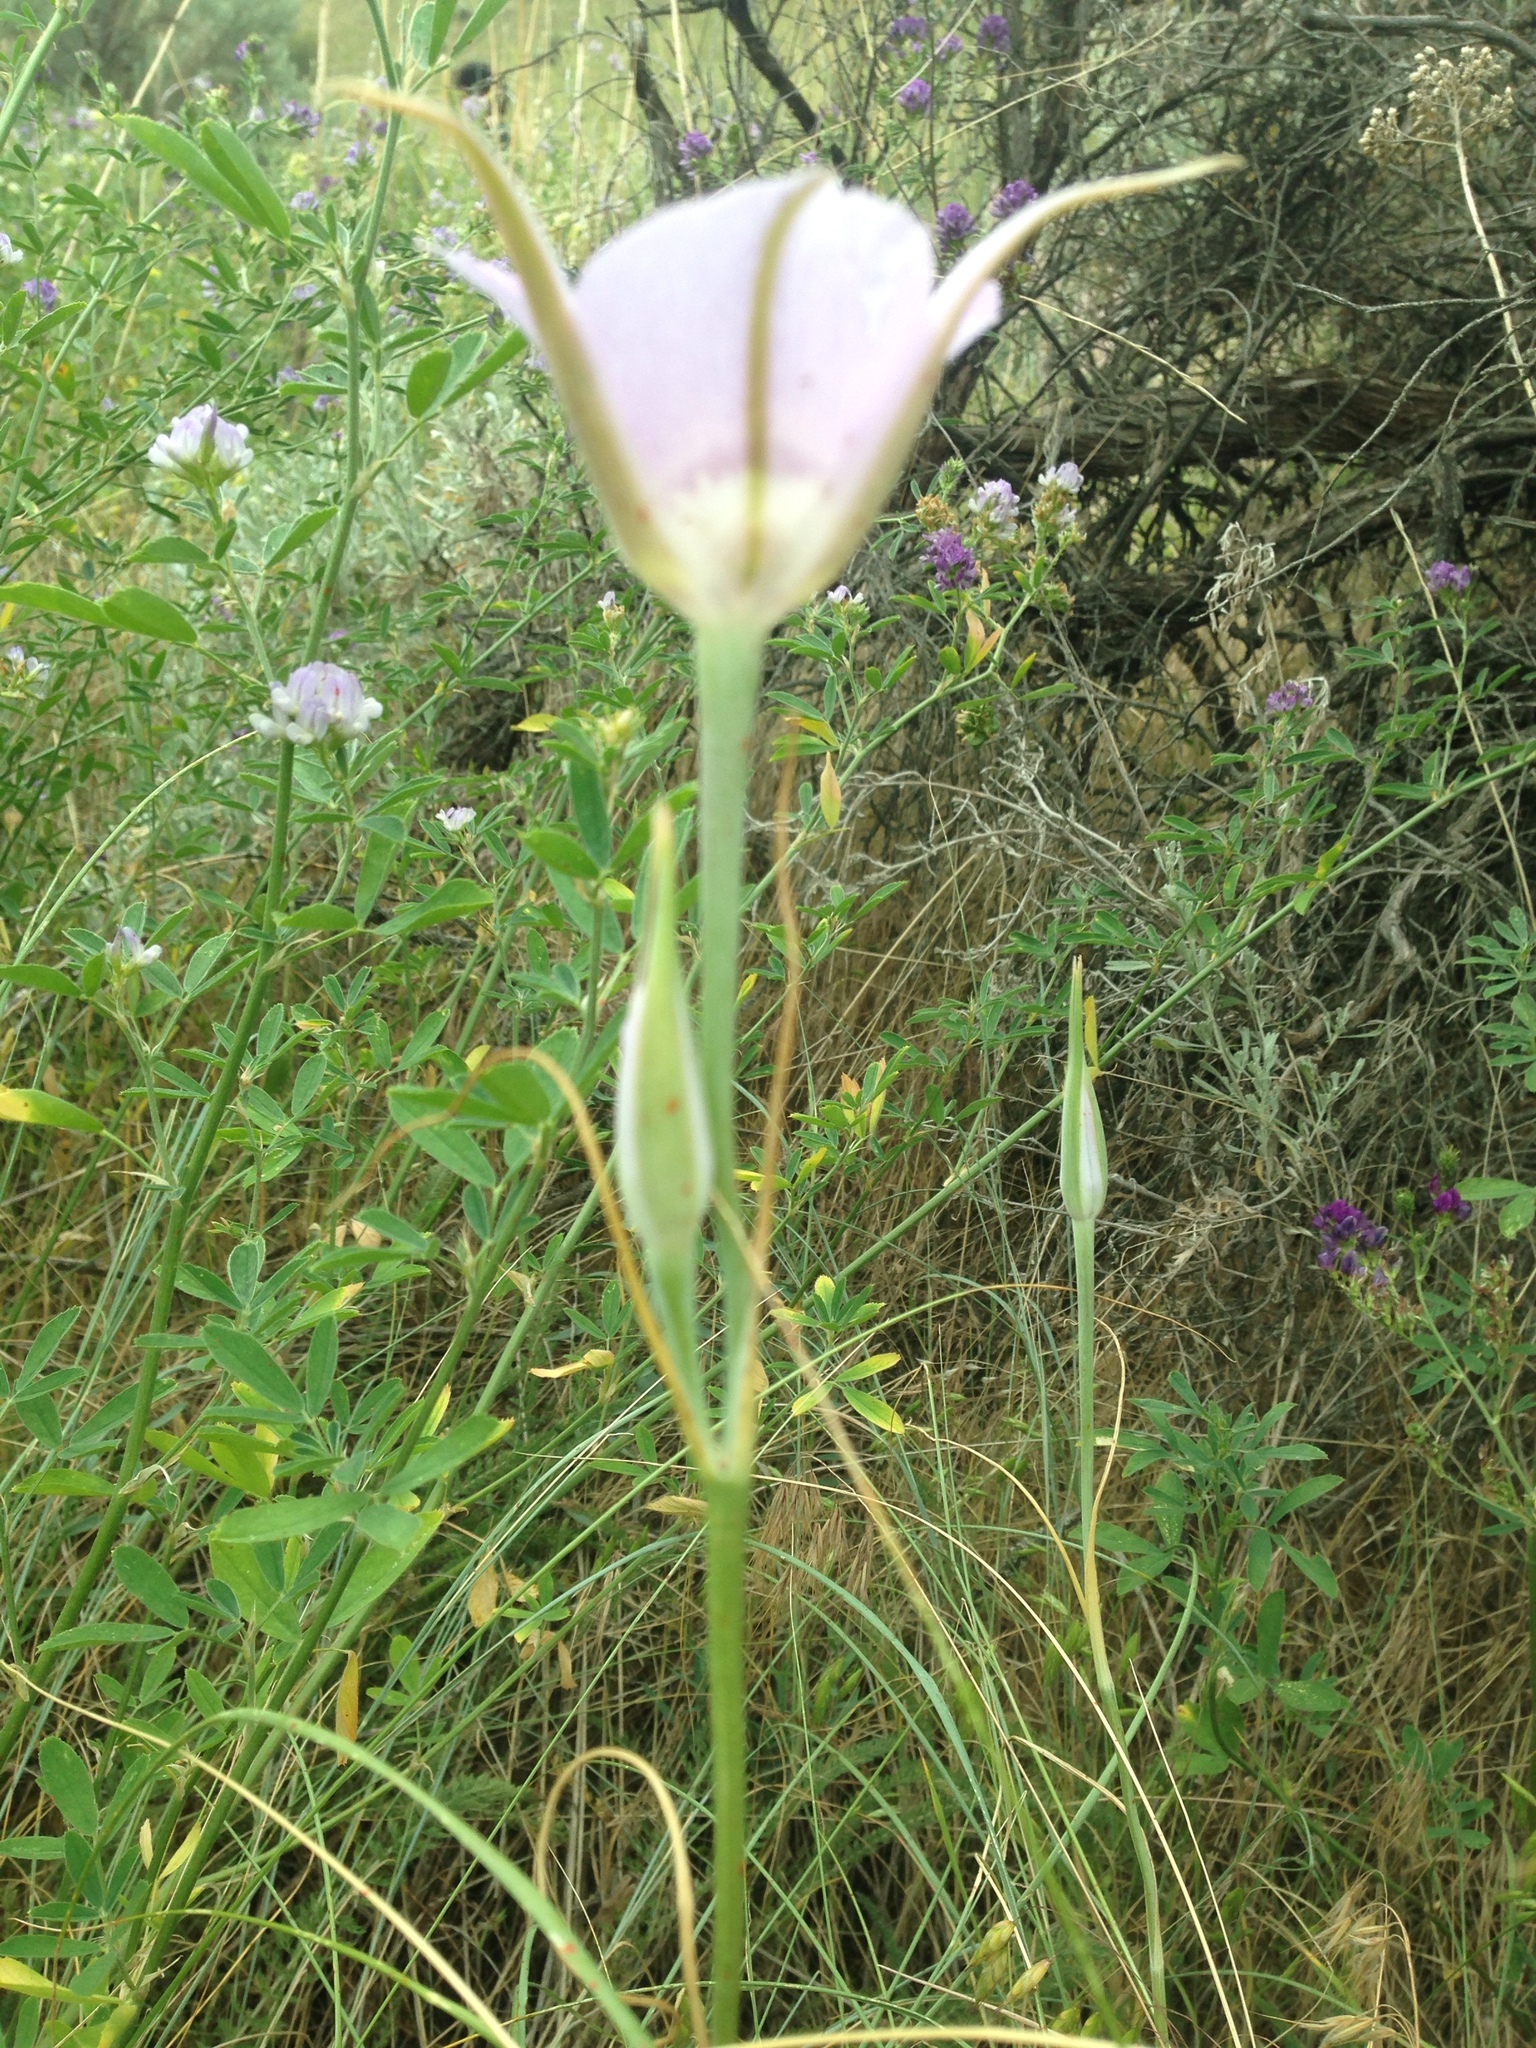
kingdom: Plantae
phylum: Tracheophyta
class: Liliopsida
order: Liliales
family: Liliaceae
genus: Calochortus
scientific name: Calochortus macrocarpus
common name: Green-band mariposa lily
